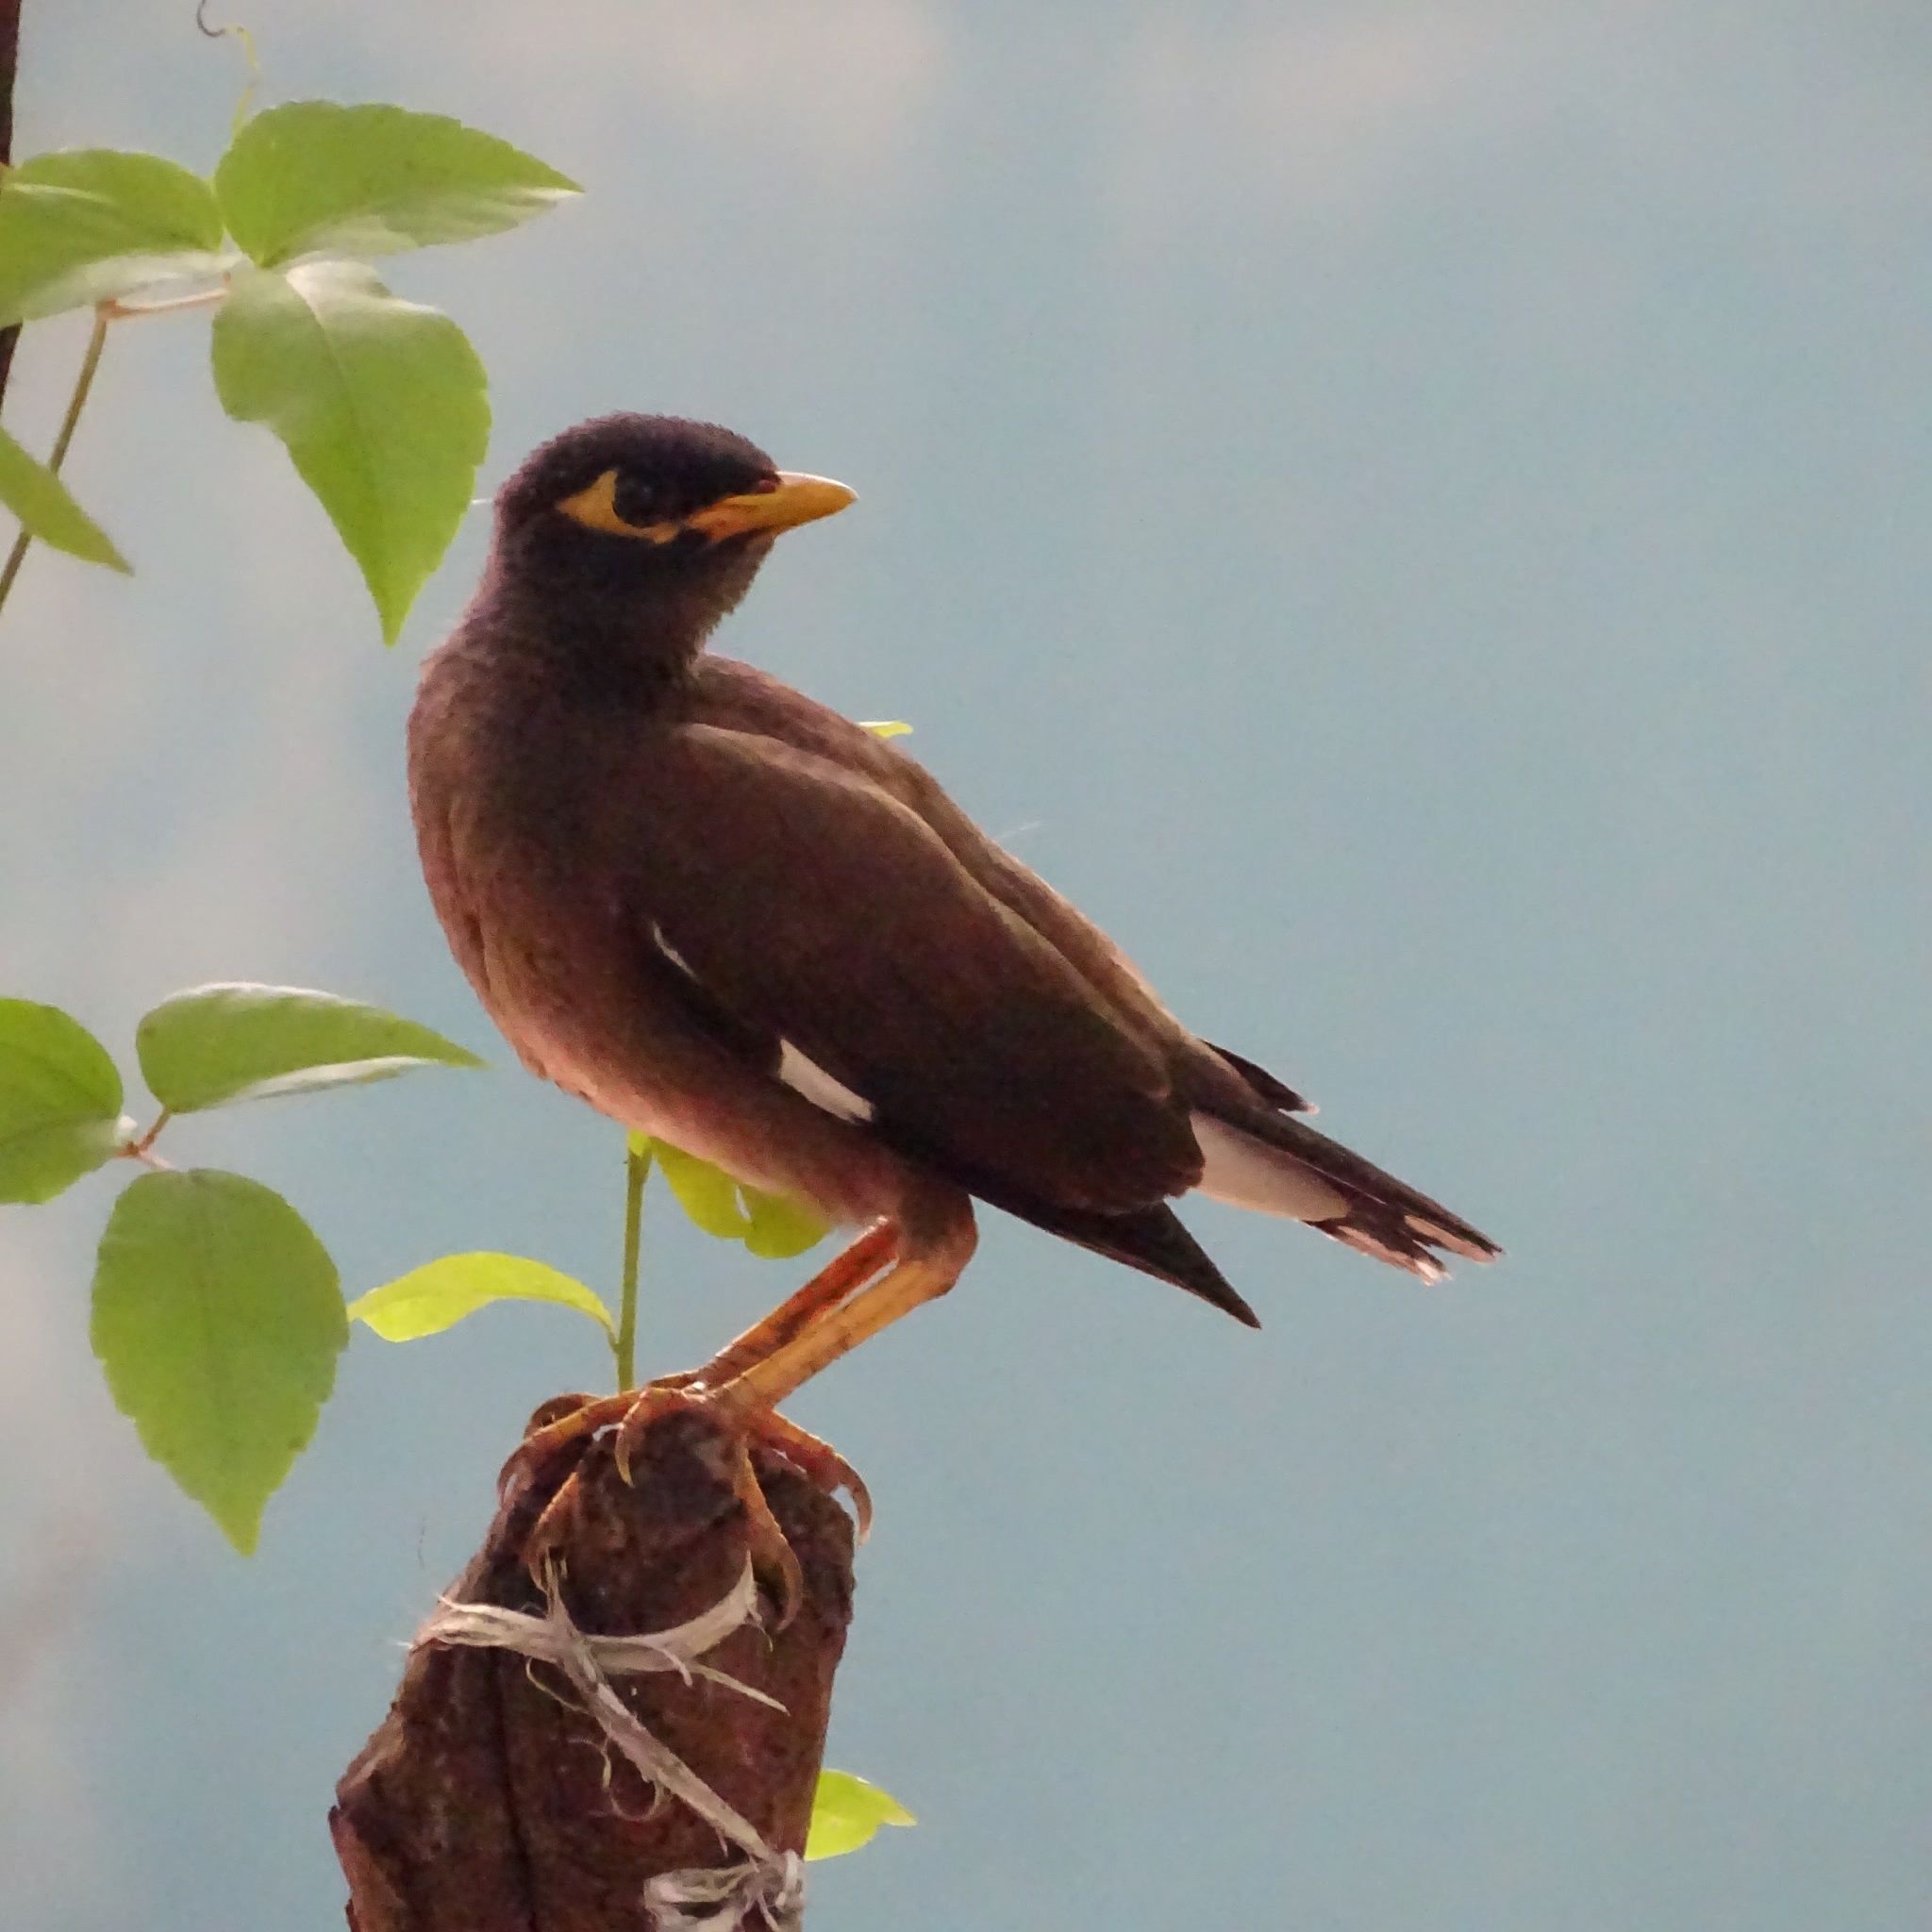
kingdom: Animalia
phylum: Chordata
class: Aves
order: Passeriformes
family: Sturnidae
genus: Acridotheres
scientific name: Acridotheres tristis
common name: Common myna
